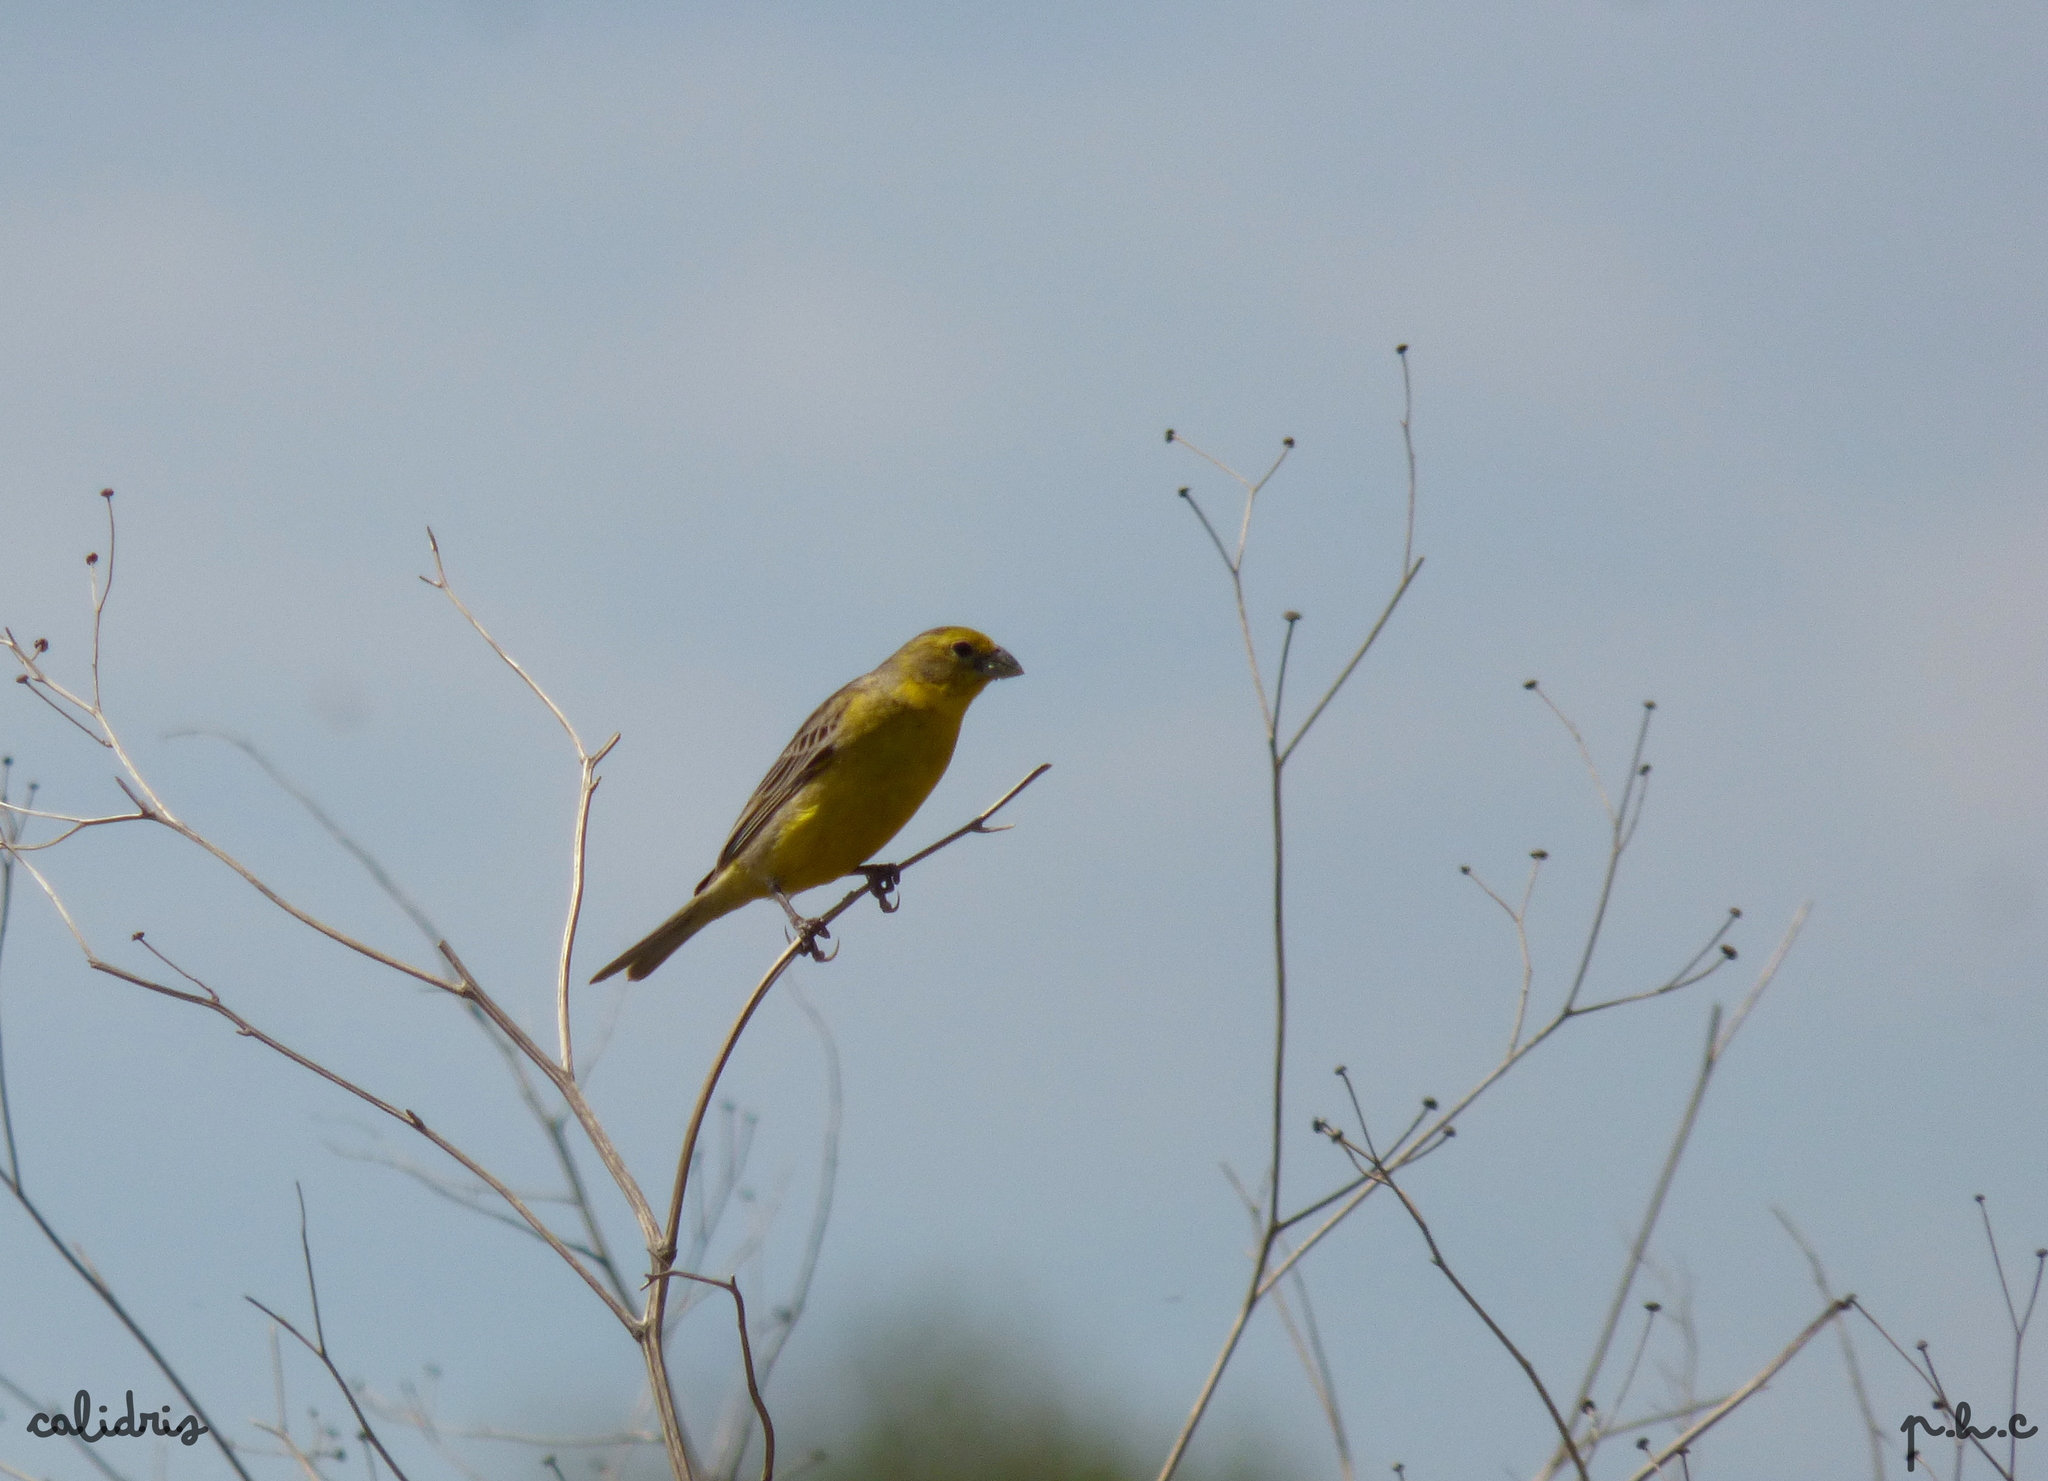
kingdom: Animalia
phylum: Chordata
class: Aves
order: Passeriformes
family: Thraupidae
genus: Sicalis
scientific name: Sicalis luteola
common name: Grassland yellow-finch
